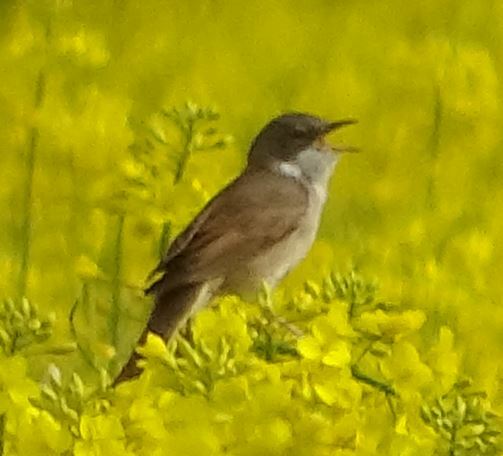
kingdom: Animalia
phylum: Chordata
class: Aves
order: Passeriformes
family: Sylviidae
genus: Sylvia
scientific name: Sylvia communis
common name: Common whitethroat
